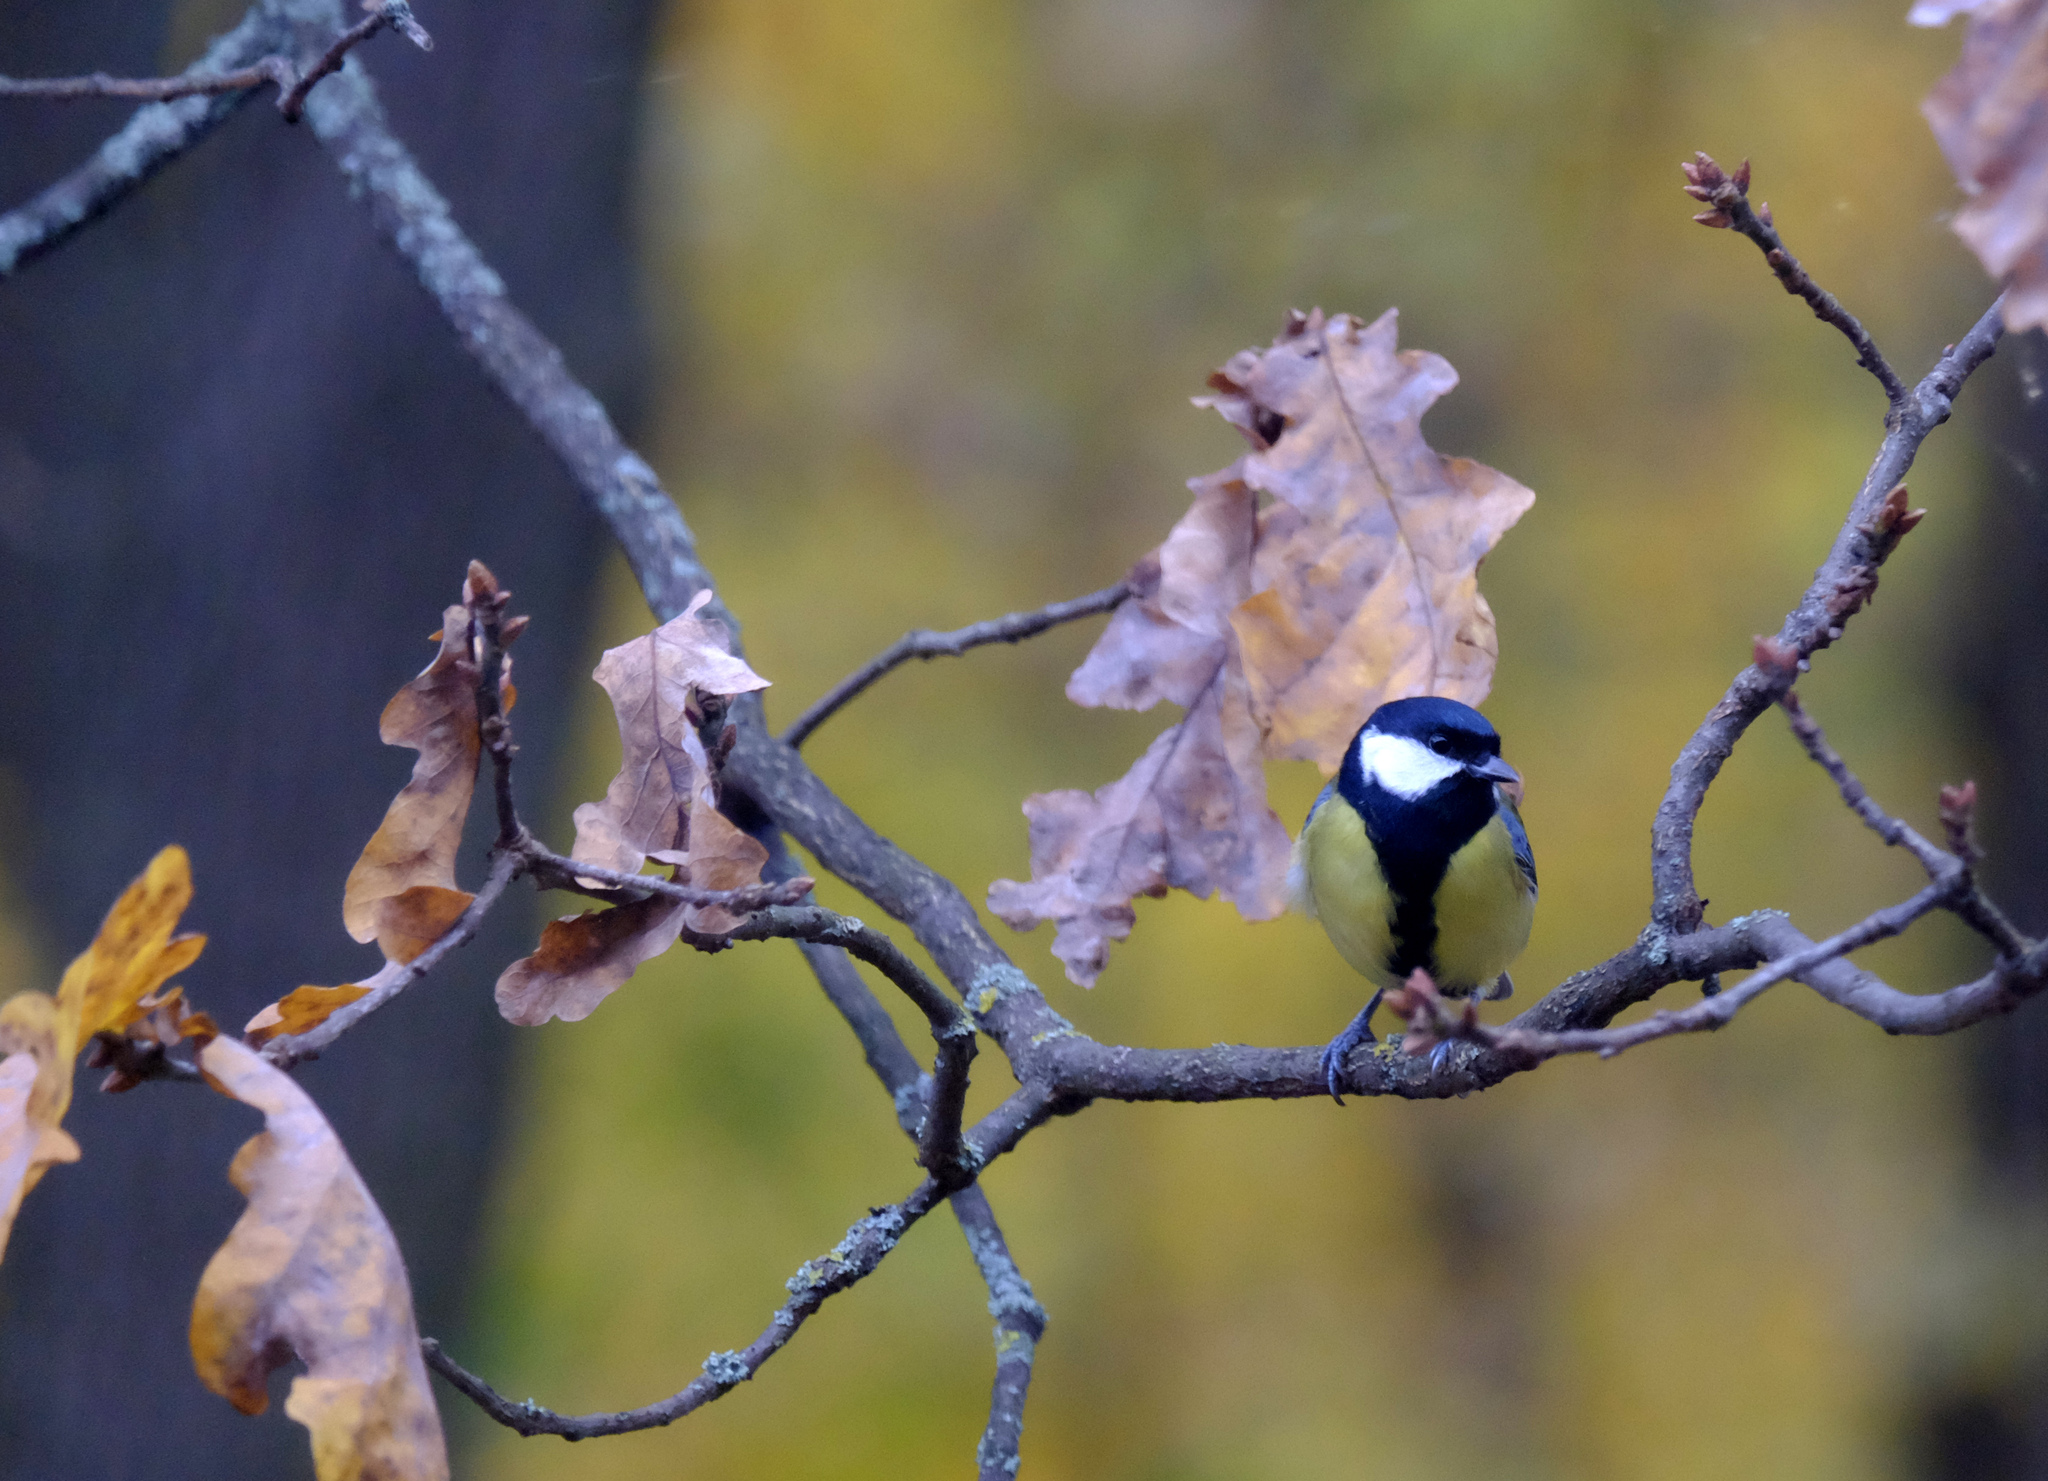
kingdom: Animalia
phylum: Chordata
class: Aves
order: Passeriformes
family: Paridae
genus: Parus
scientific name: Parus major
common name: Great tit
